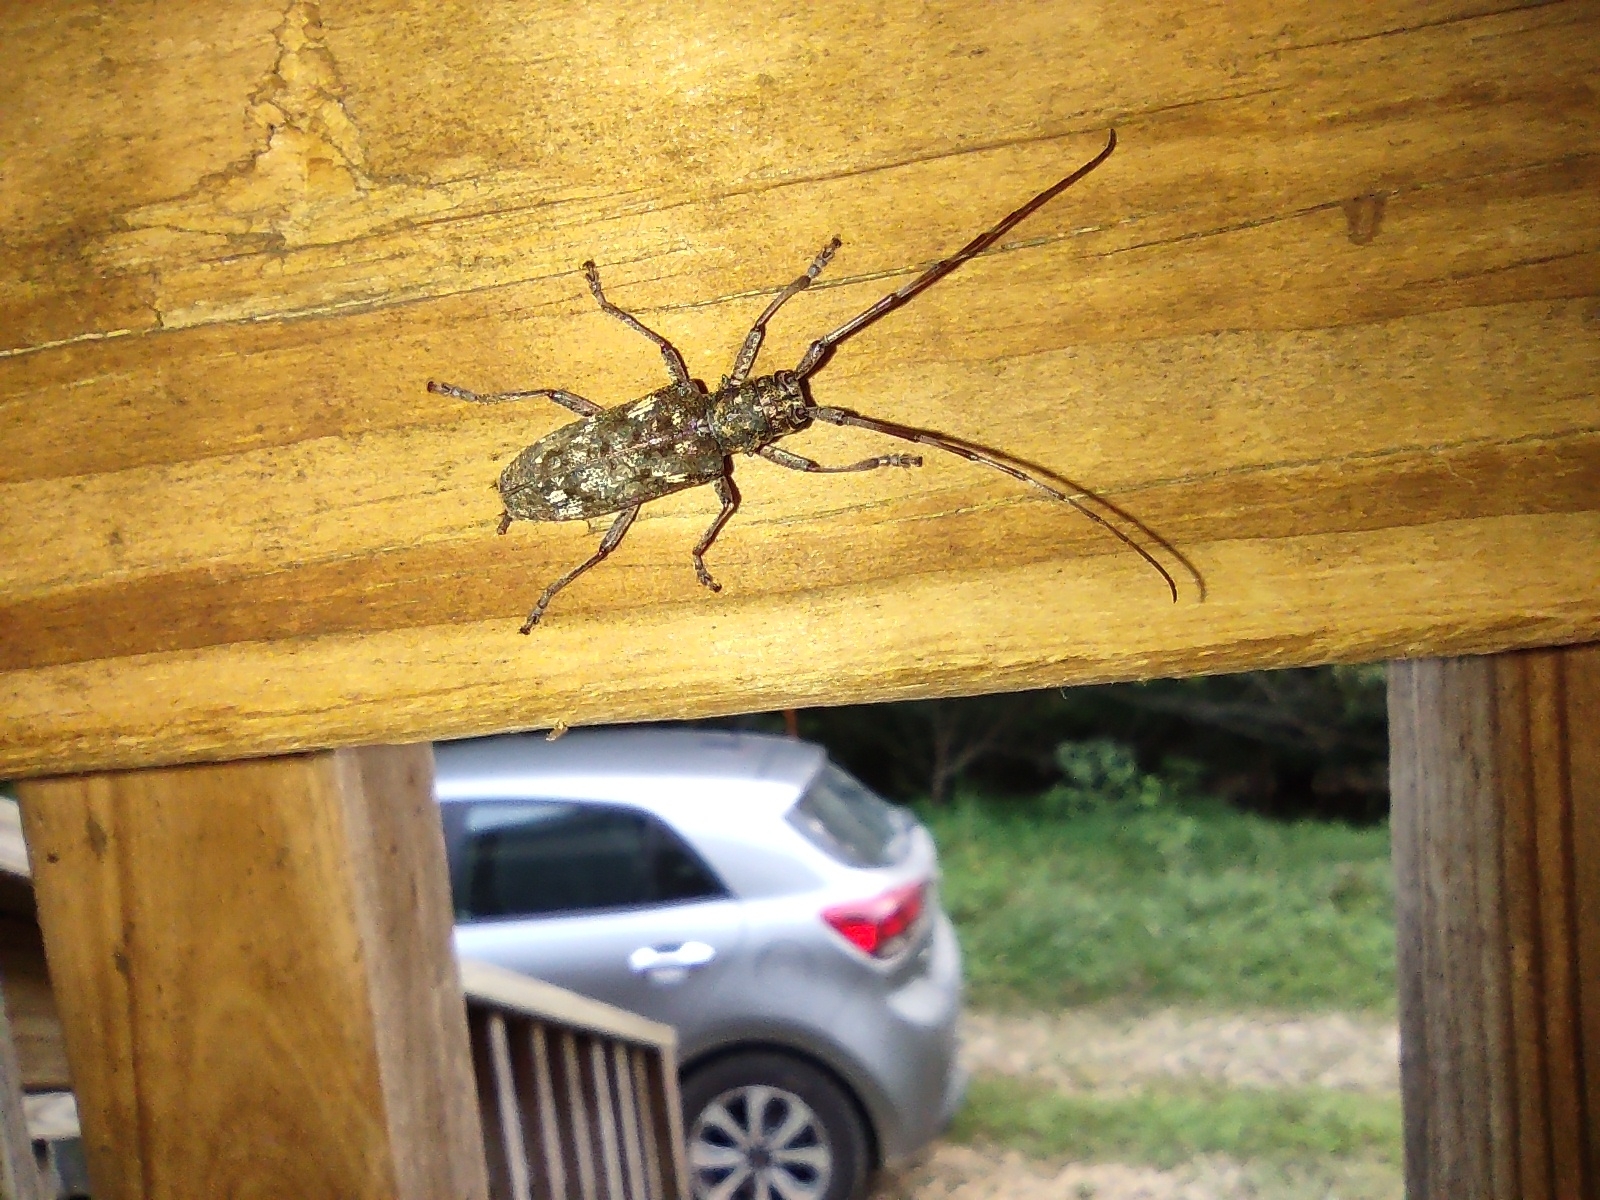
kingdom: Animalia
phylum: Arthropoda
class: Insecta
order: Coleoptera
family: Cerambycidae
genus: Monochamus
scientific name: Monochamus carolinensis
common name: Carolina pine sawyer
